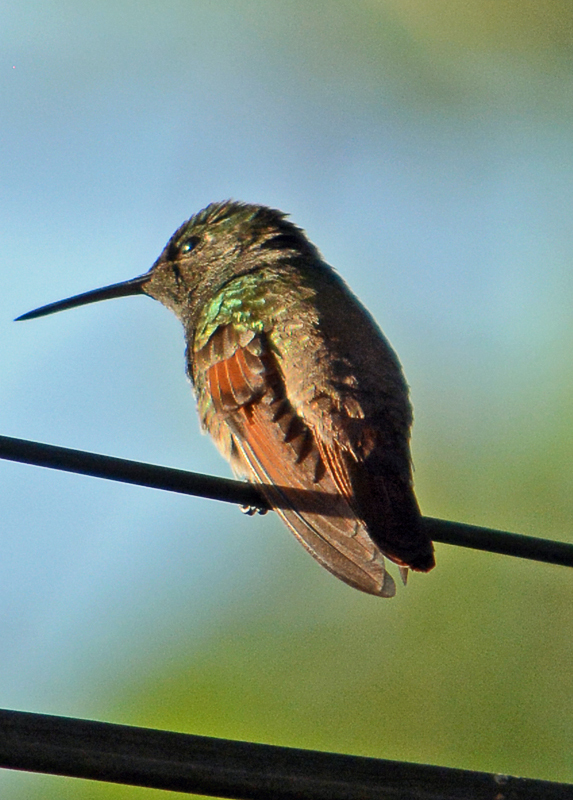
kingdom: Animalia
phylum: Chordata
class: Aves
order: Apodiformes
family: Trochilidae
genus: Saucerottia
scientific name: Saucerottia beryllina
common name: Berylline hummingbird
